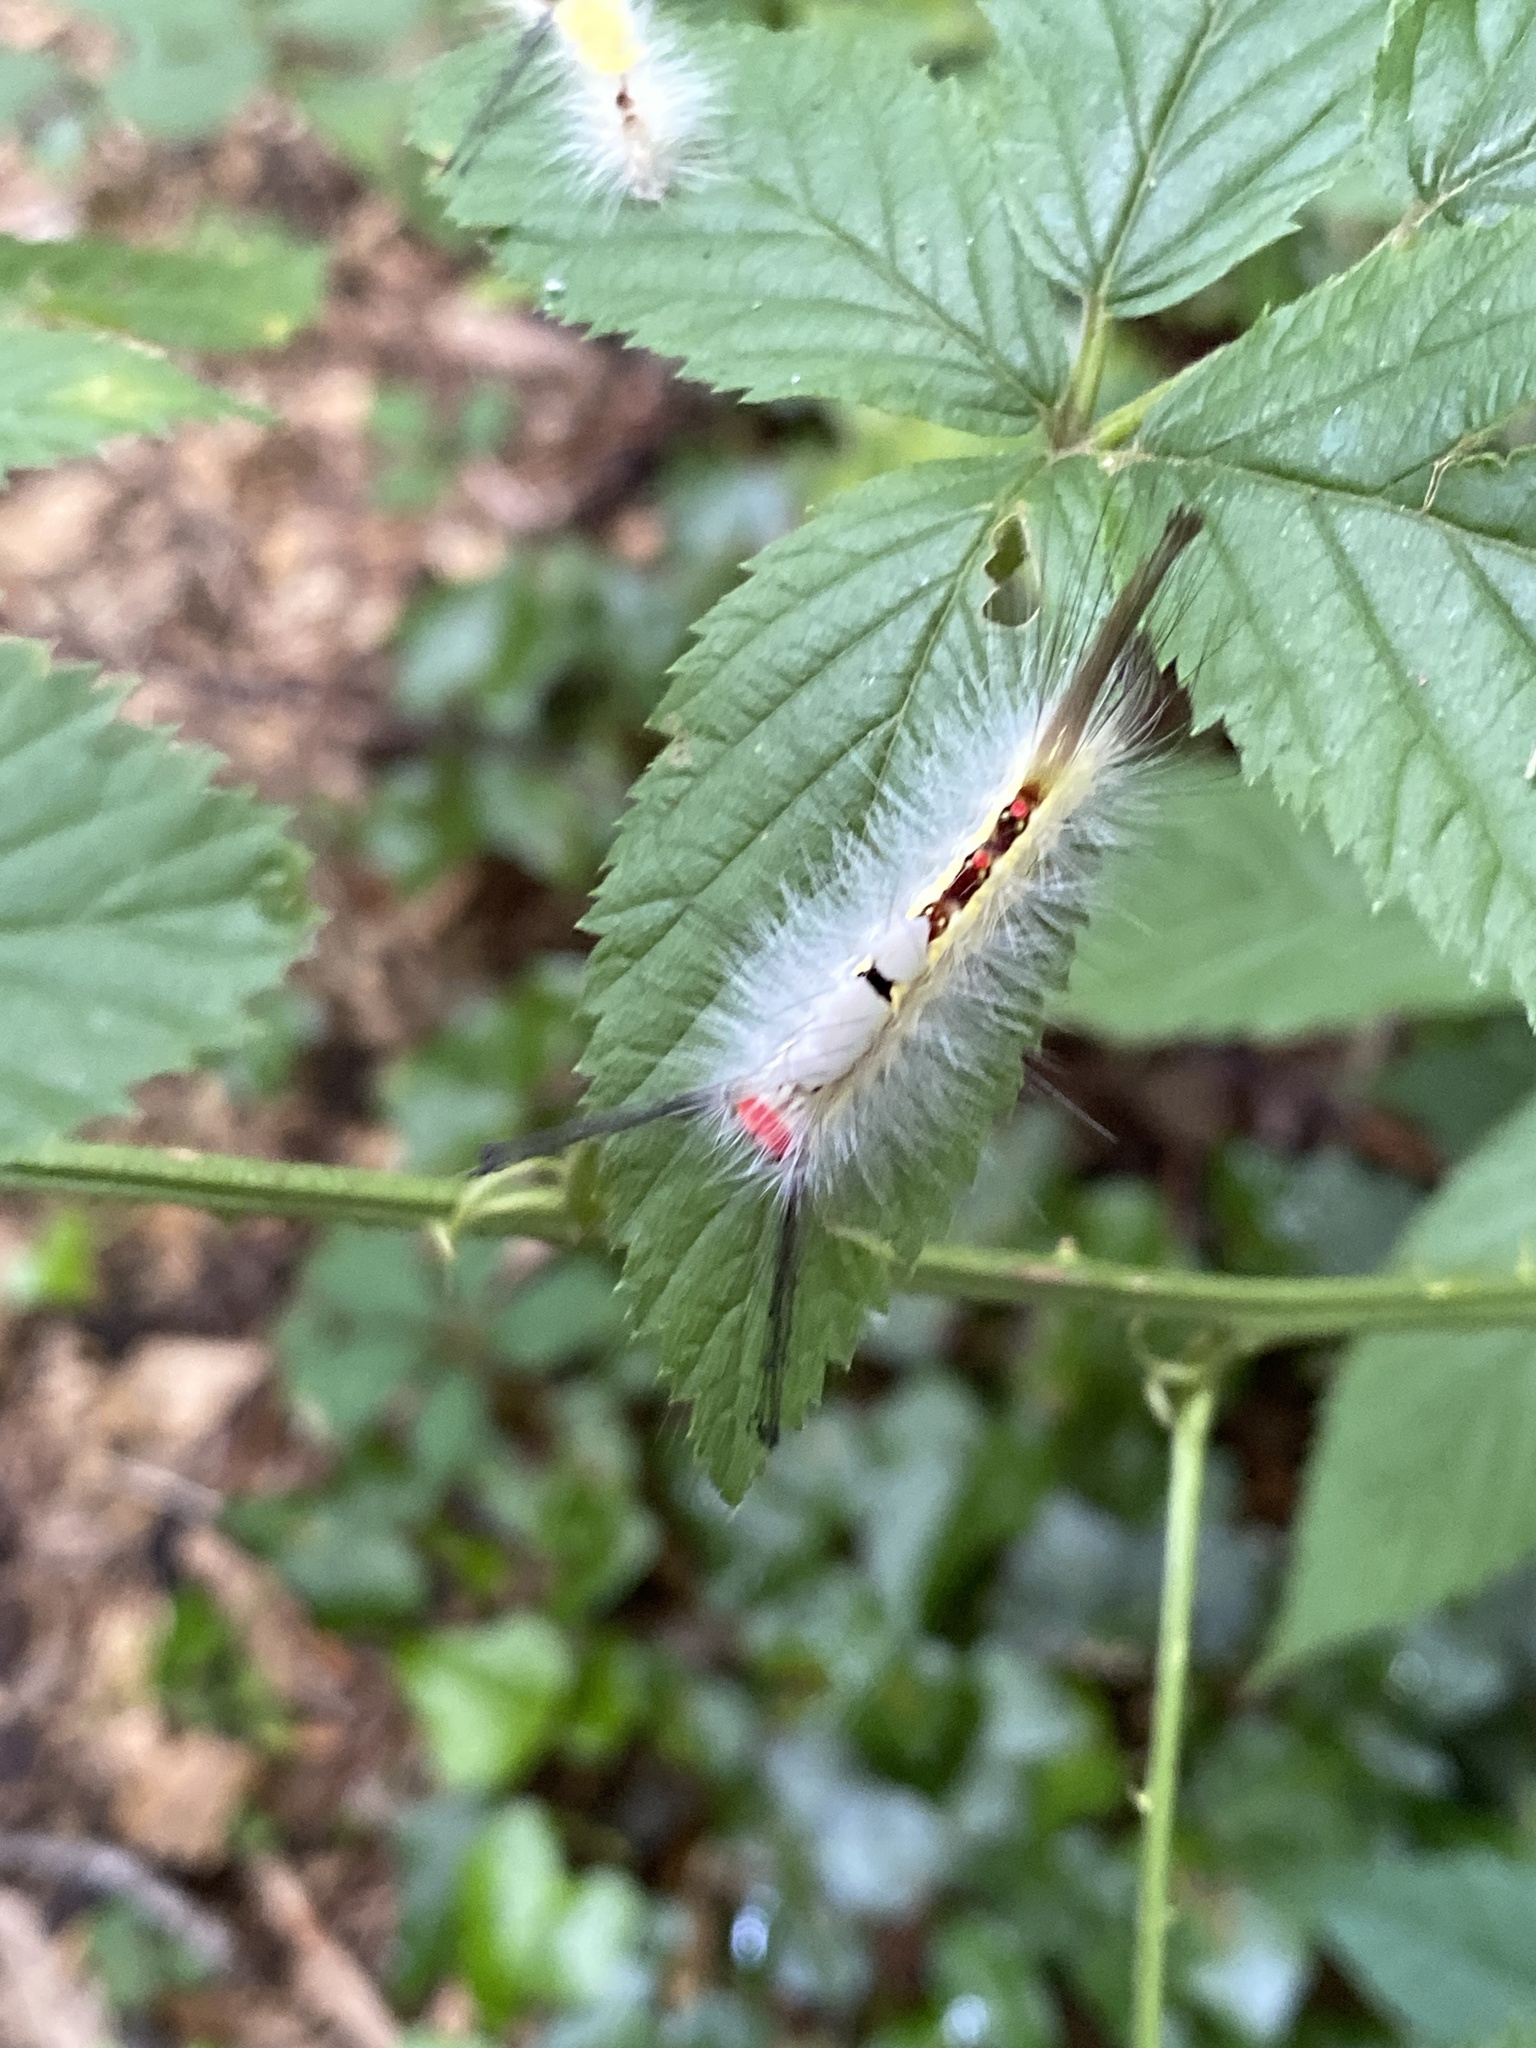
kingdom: Animalia
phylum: Arthropoda
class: Insecta
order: Lepidoptera
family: Erebidae
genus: Orgyia
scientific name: Orgyia leucostigma
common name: White-marked tussock moth
